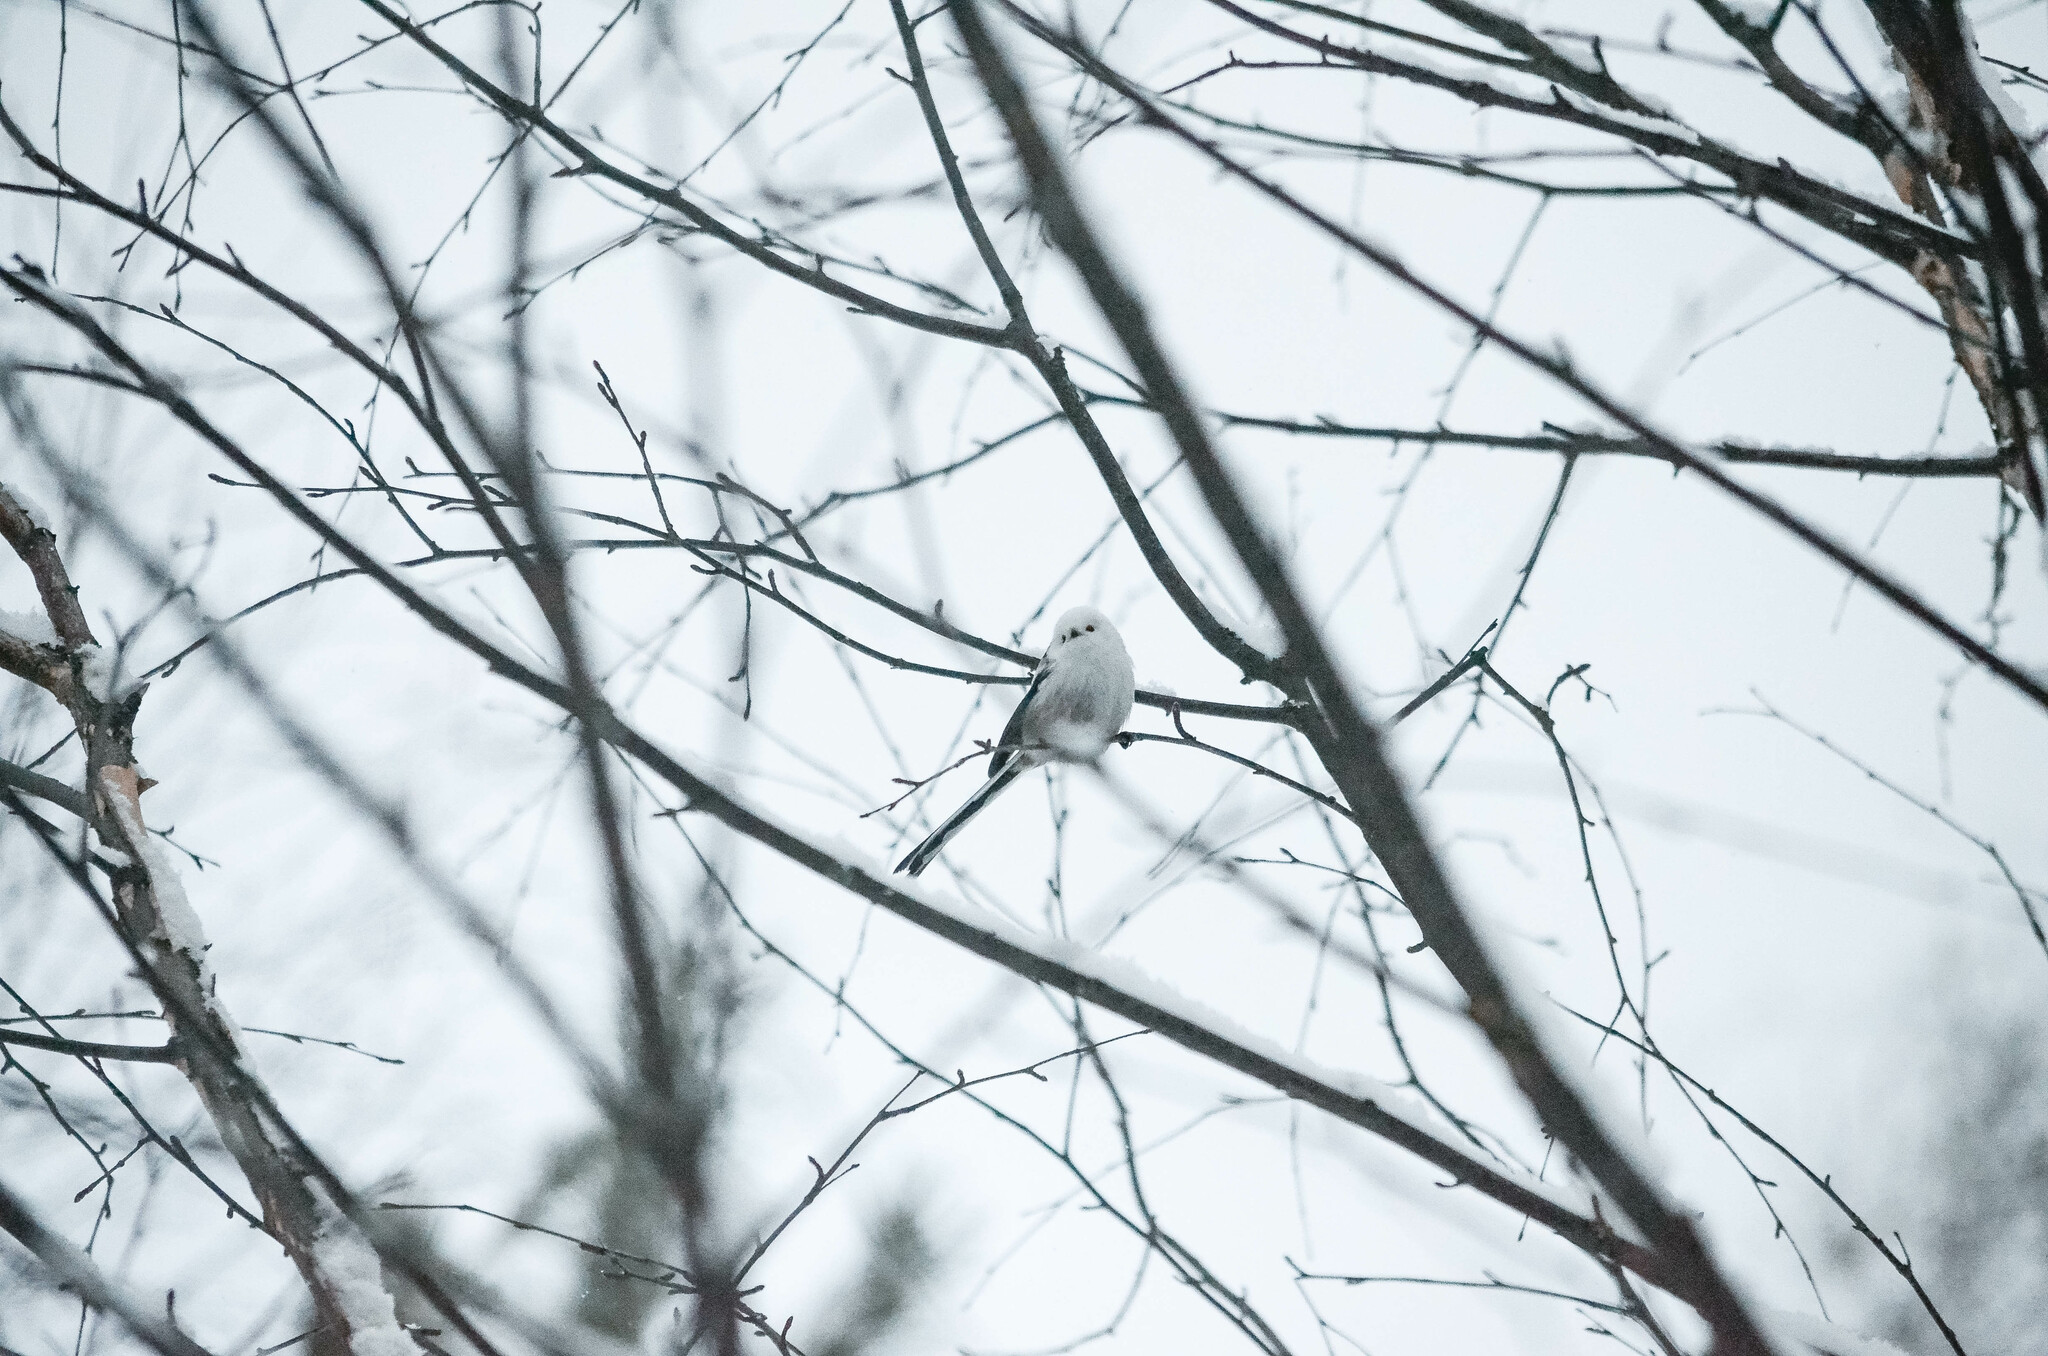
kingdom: Animalia
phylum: Chordata
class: Aves
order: Passeriformes
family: Aegithalidae
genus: Aegithalos
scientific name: Aegithalos caudatus
